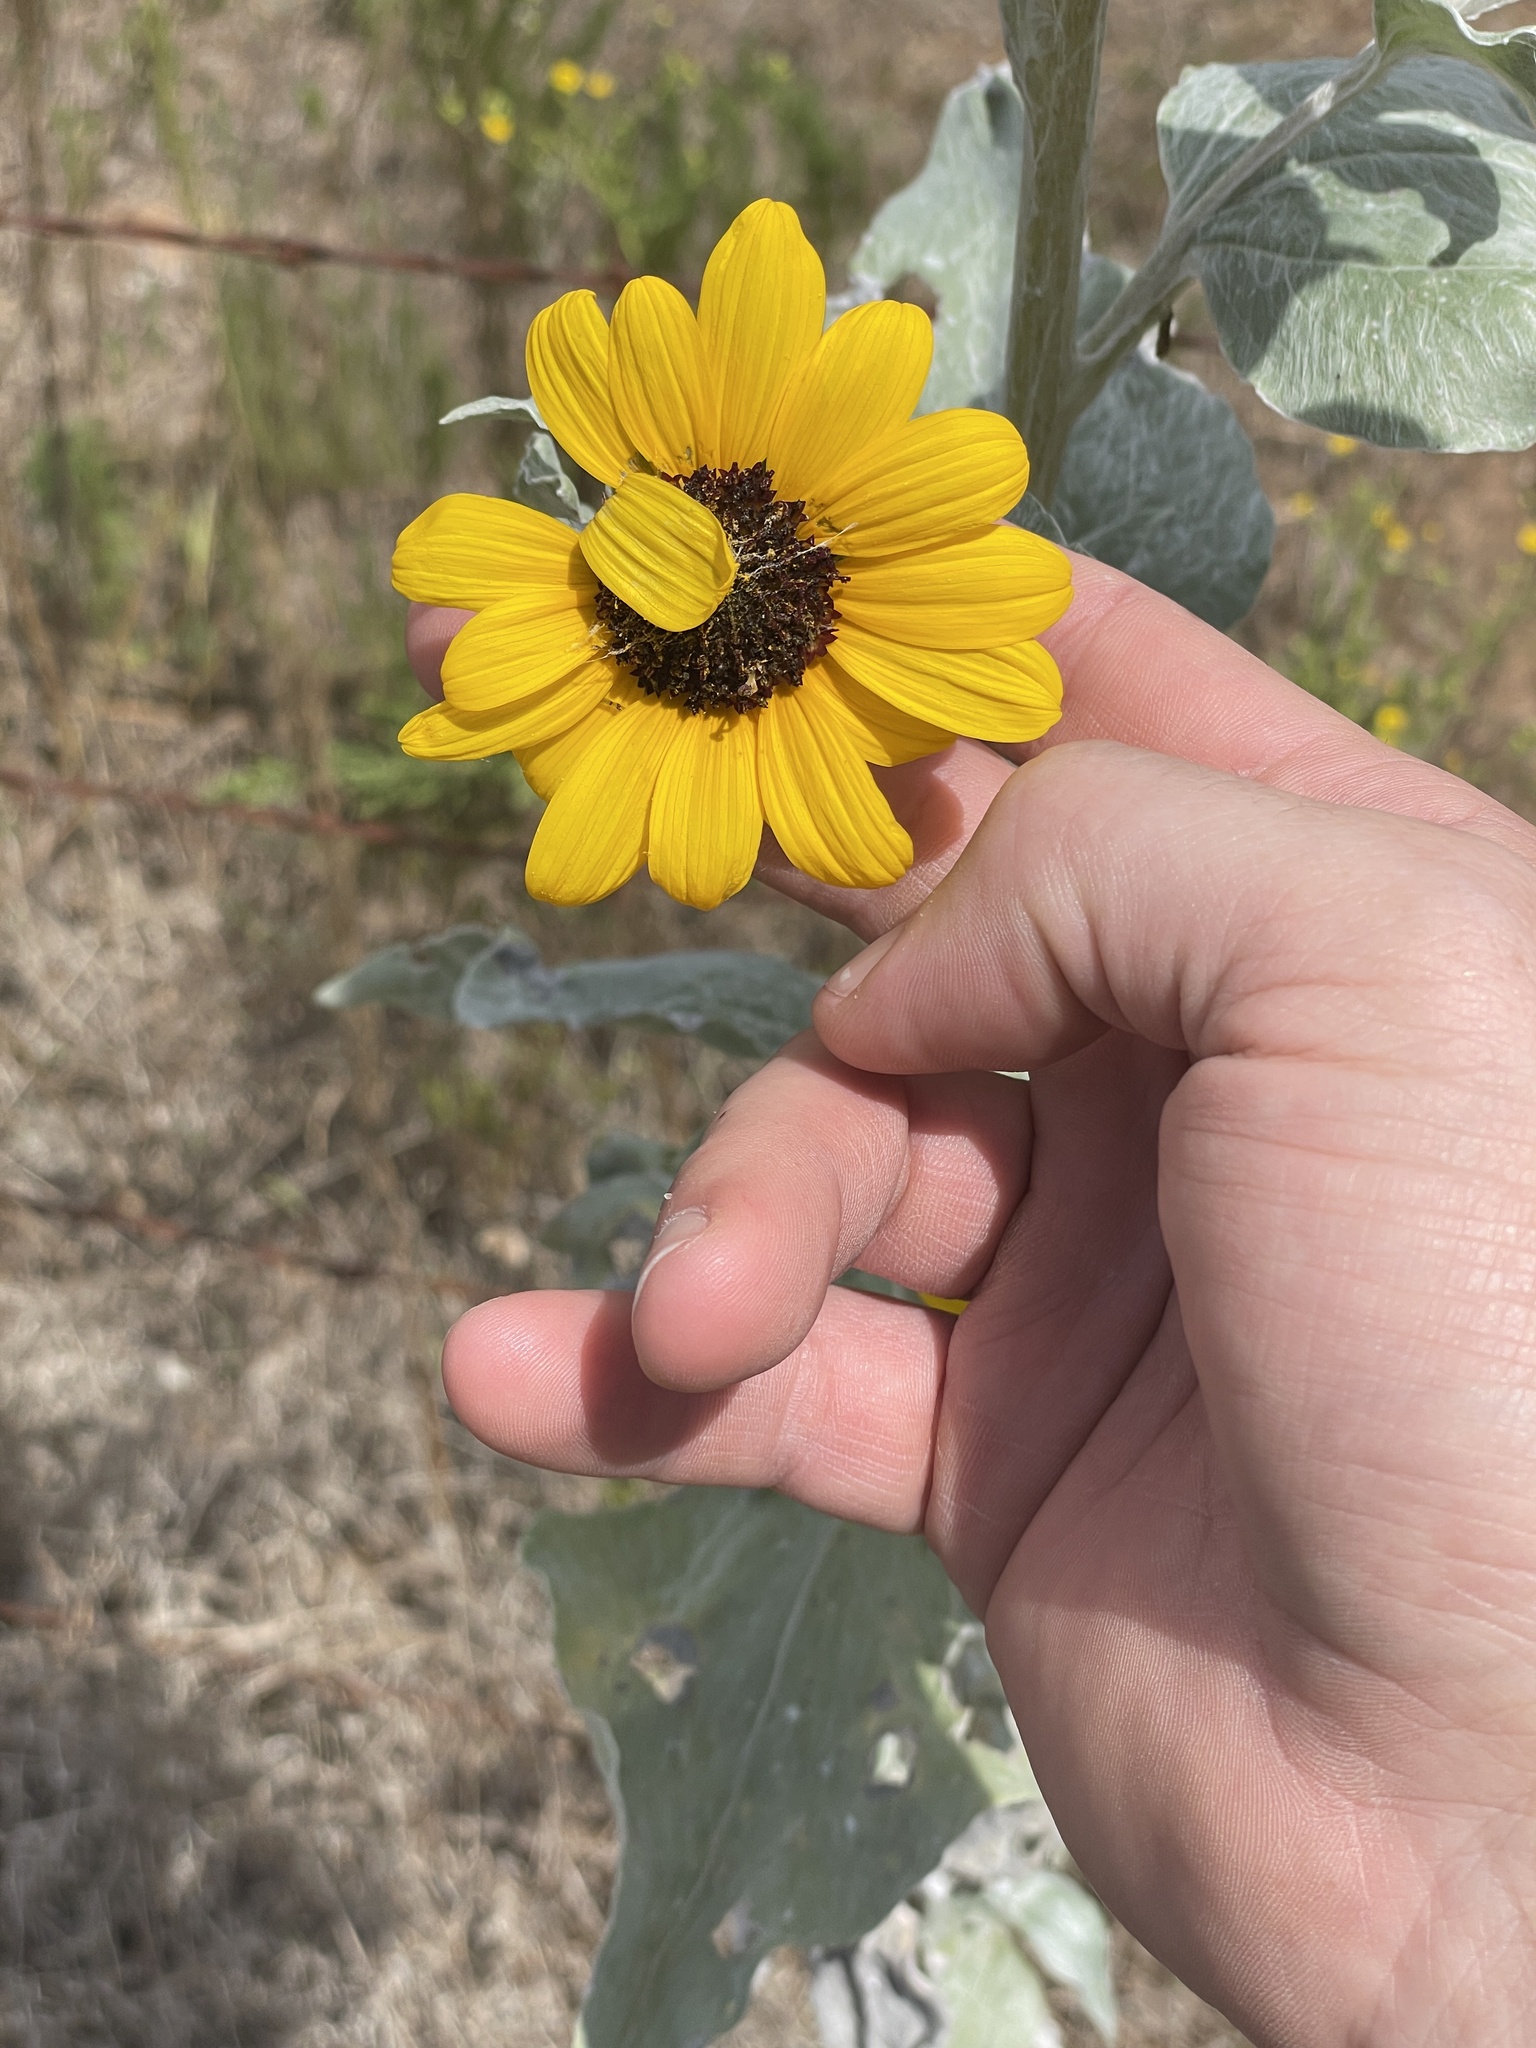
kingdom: Plantae
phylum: Tracheophyta
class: Magnoliopsida
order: Asterales
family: Asteraceae
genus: Helianthus
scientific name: Helianthus argophyllus
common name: Silverleaf sunflower
